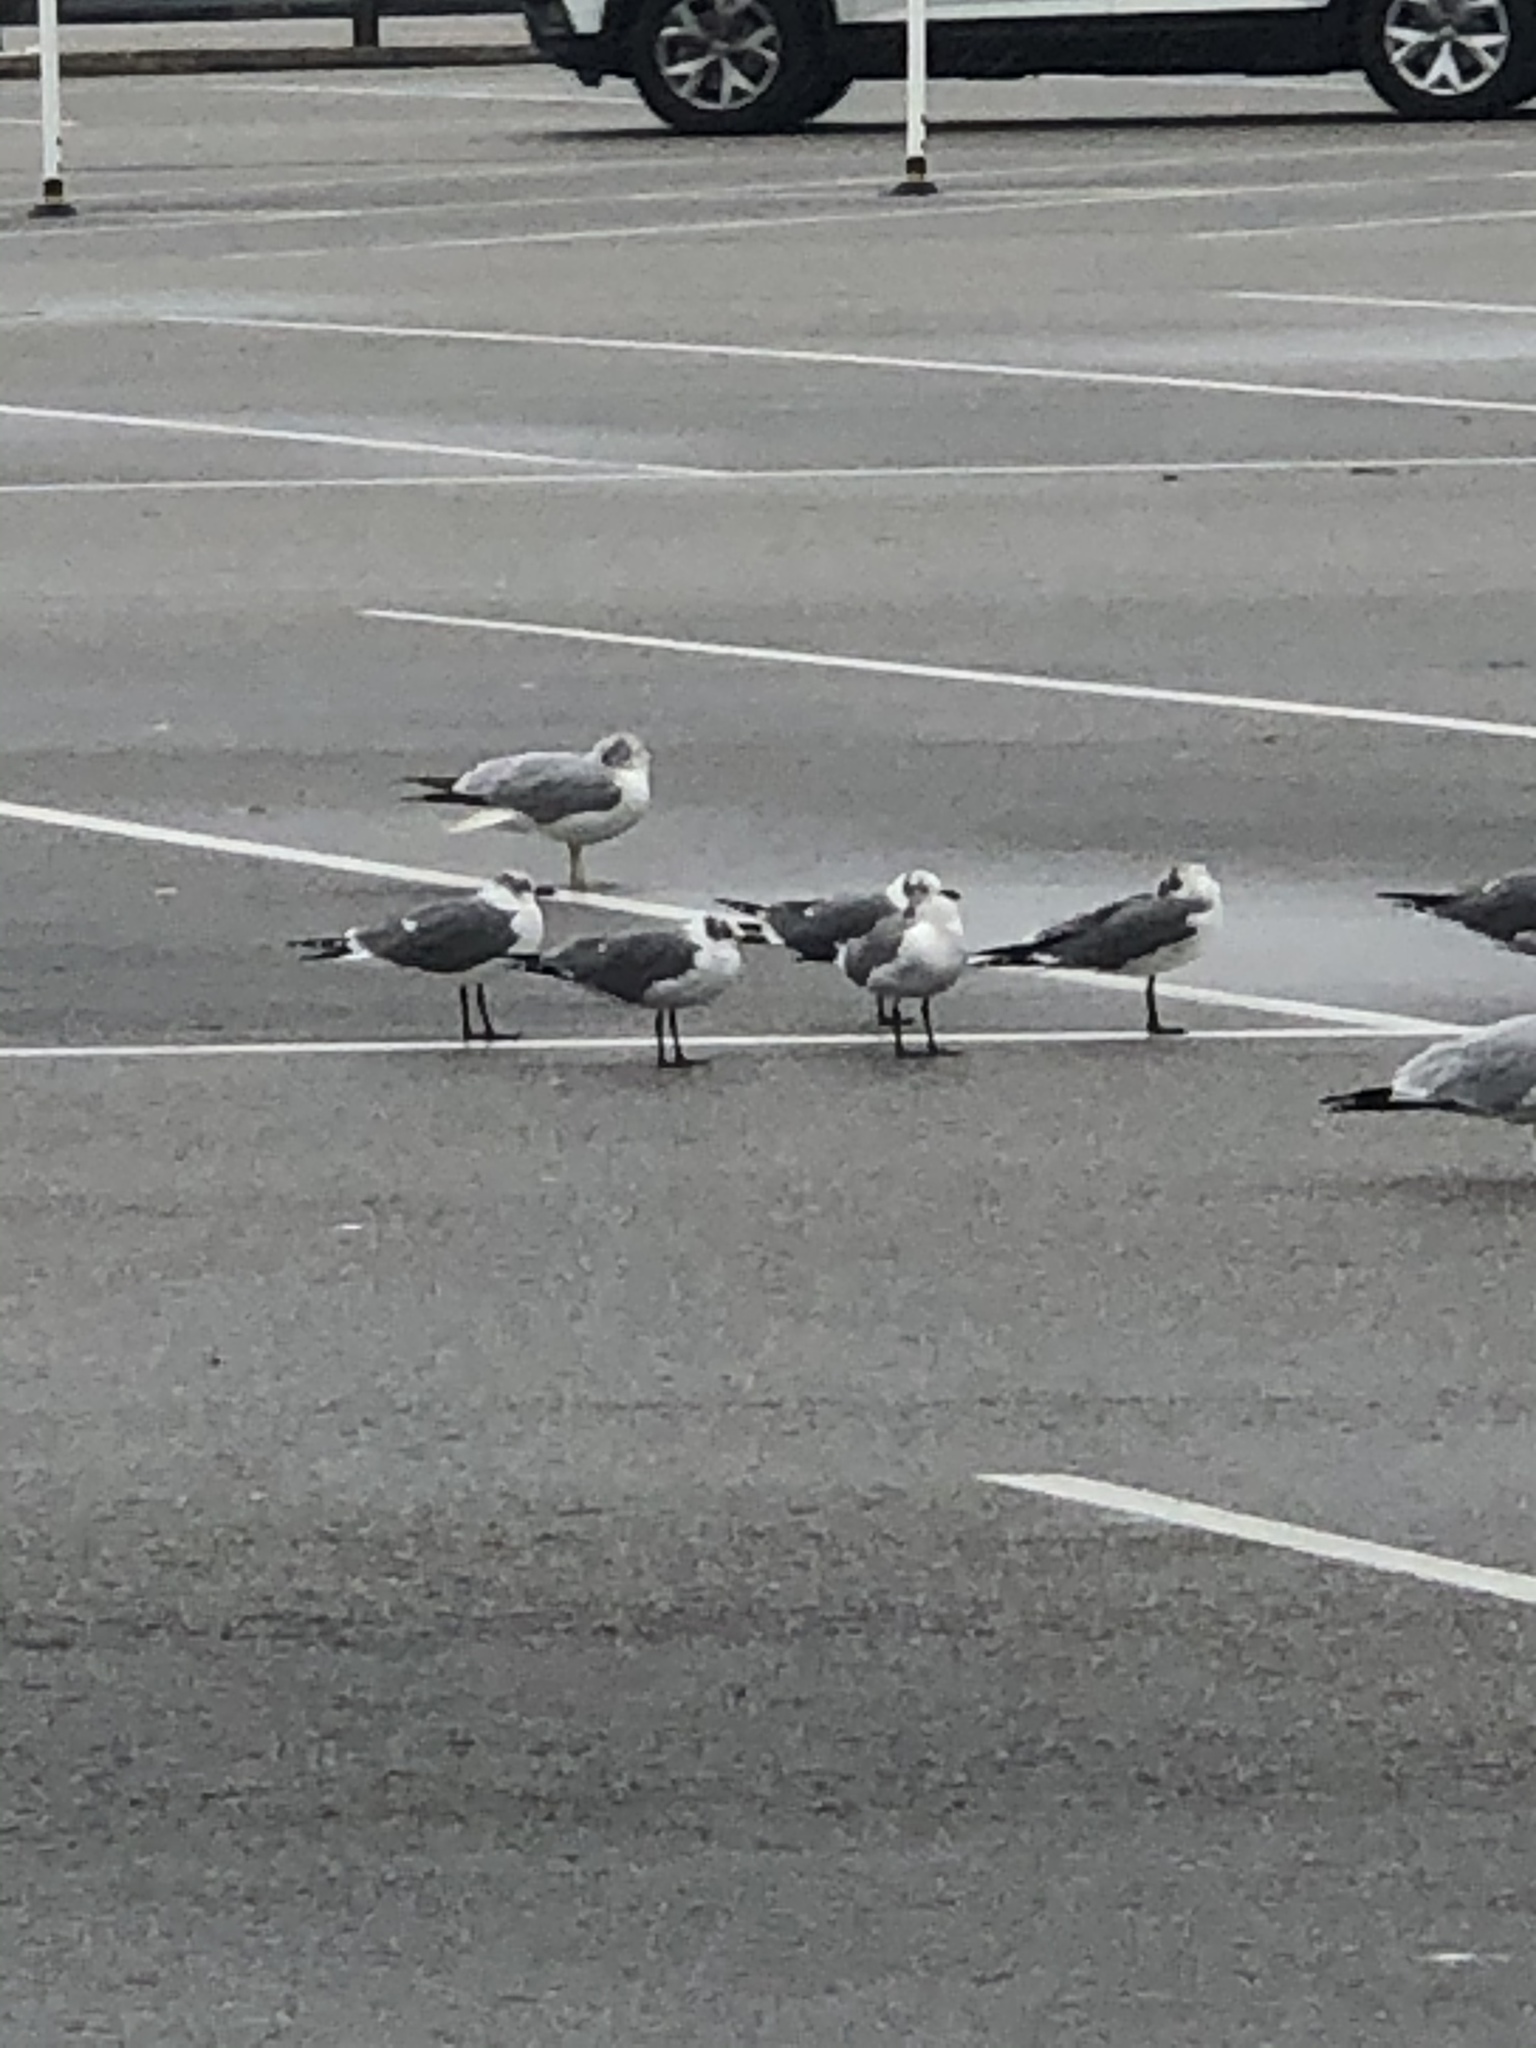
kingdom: Animalia
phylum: Chordata
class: Aves
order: Charadriiformes
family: Laridae
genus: Leucophaeus
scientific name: Leucophaeus atricilla
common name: Laughing gull
